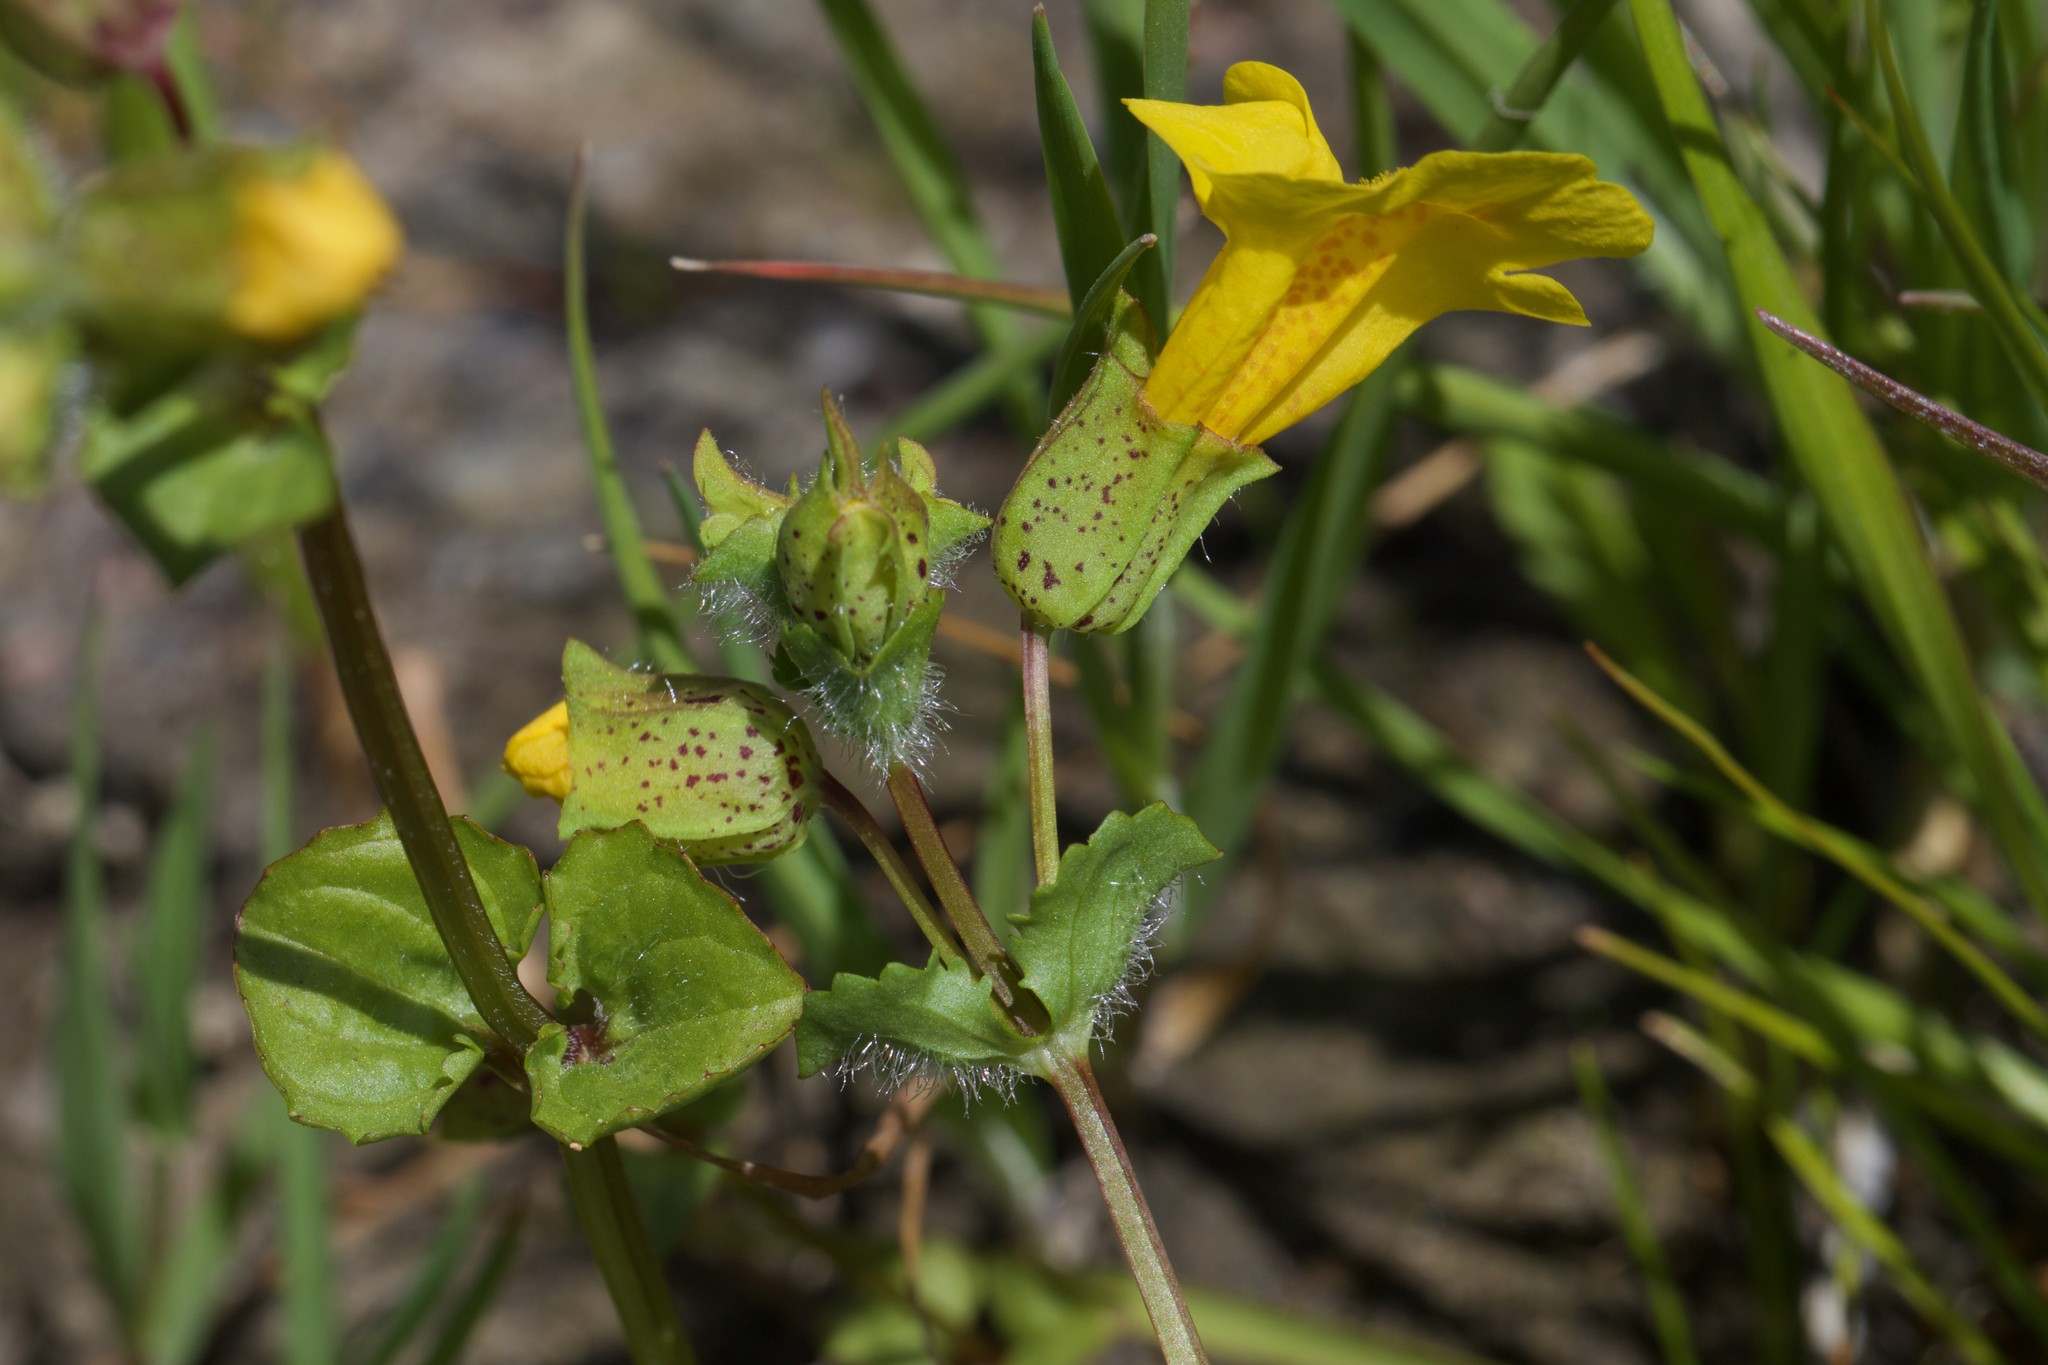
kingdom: Plantae
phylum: Tracheophyta
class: Magnoliopsida
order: Lamiales
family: Phrymaceae
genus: Erythranthe
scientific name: Erythranthe arvensis
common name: Field monkeyflower
